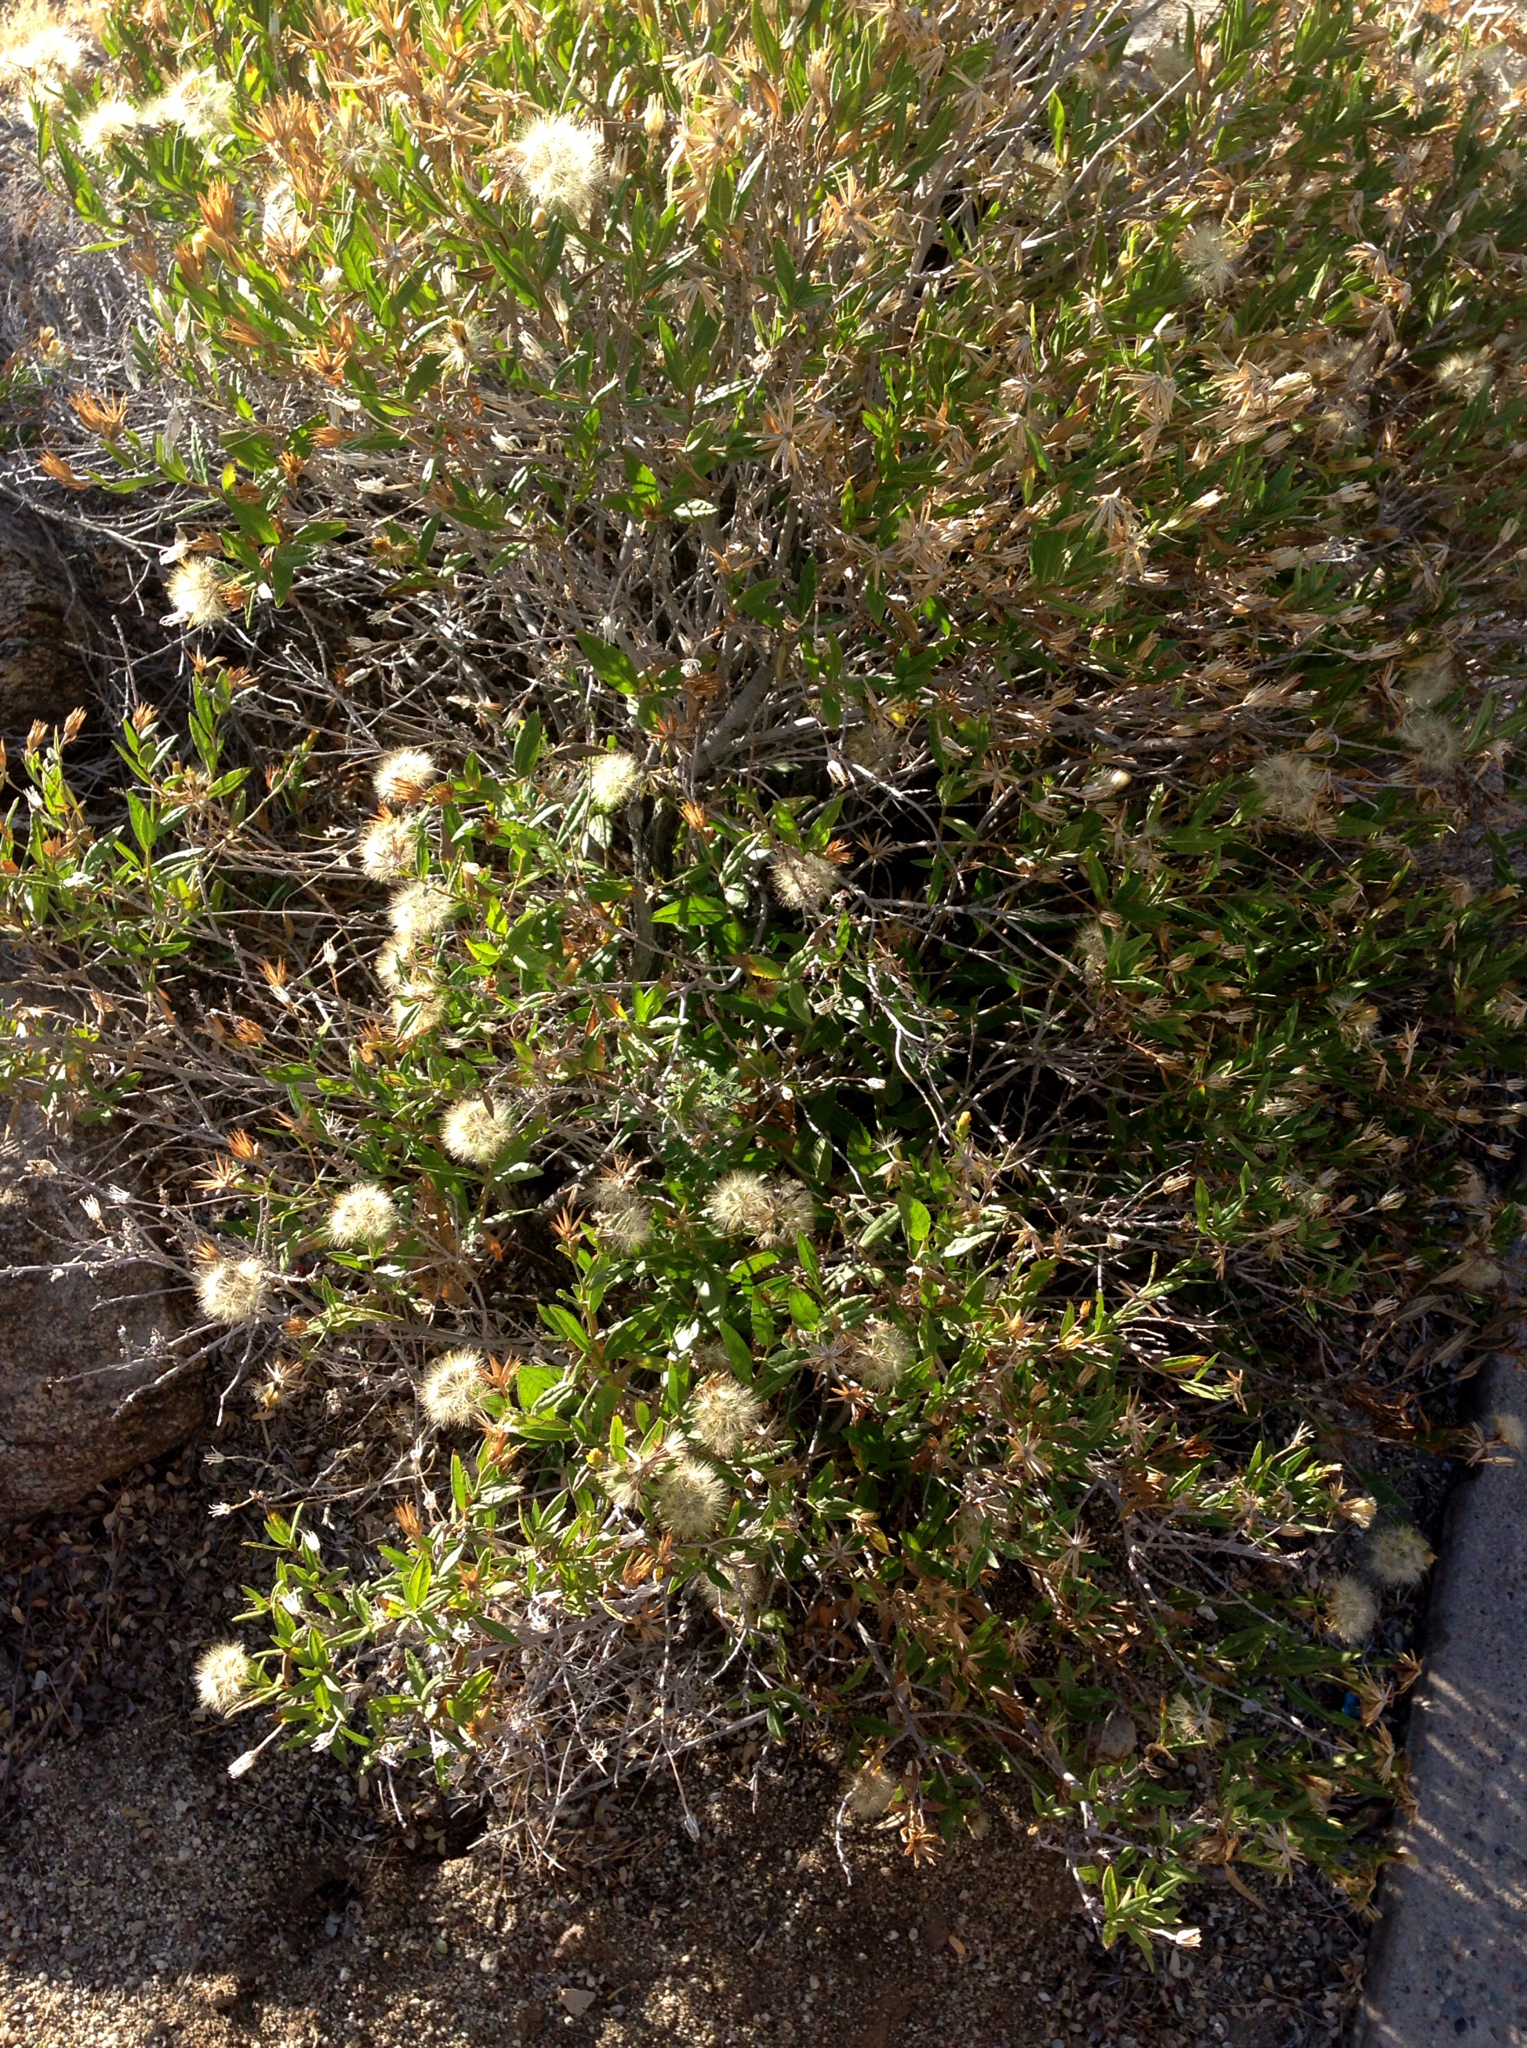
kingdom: Plantae
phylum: Tracheophyta
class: Magnoliopsida
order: Asterales
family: Asteraceae
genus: Trixis
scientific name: Trixis californica
